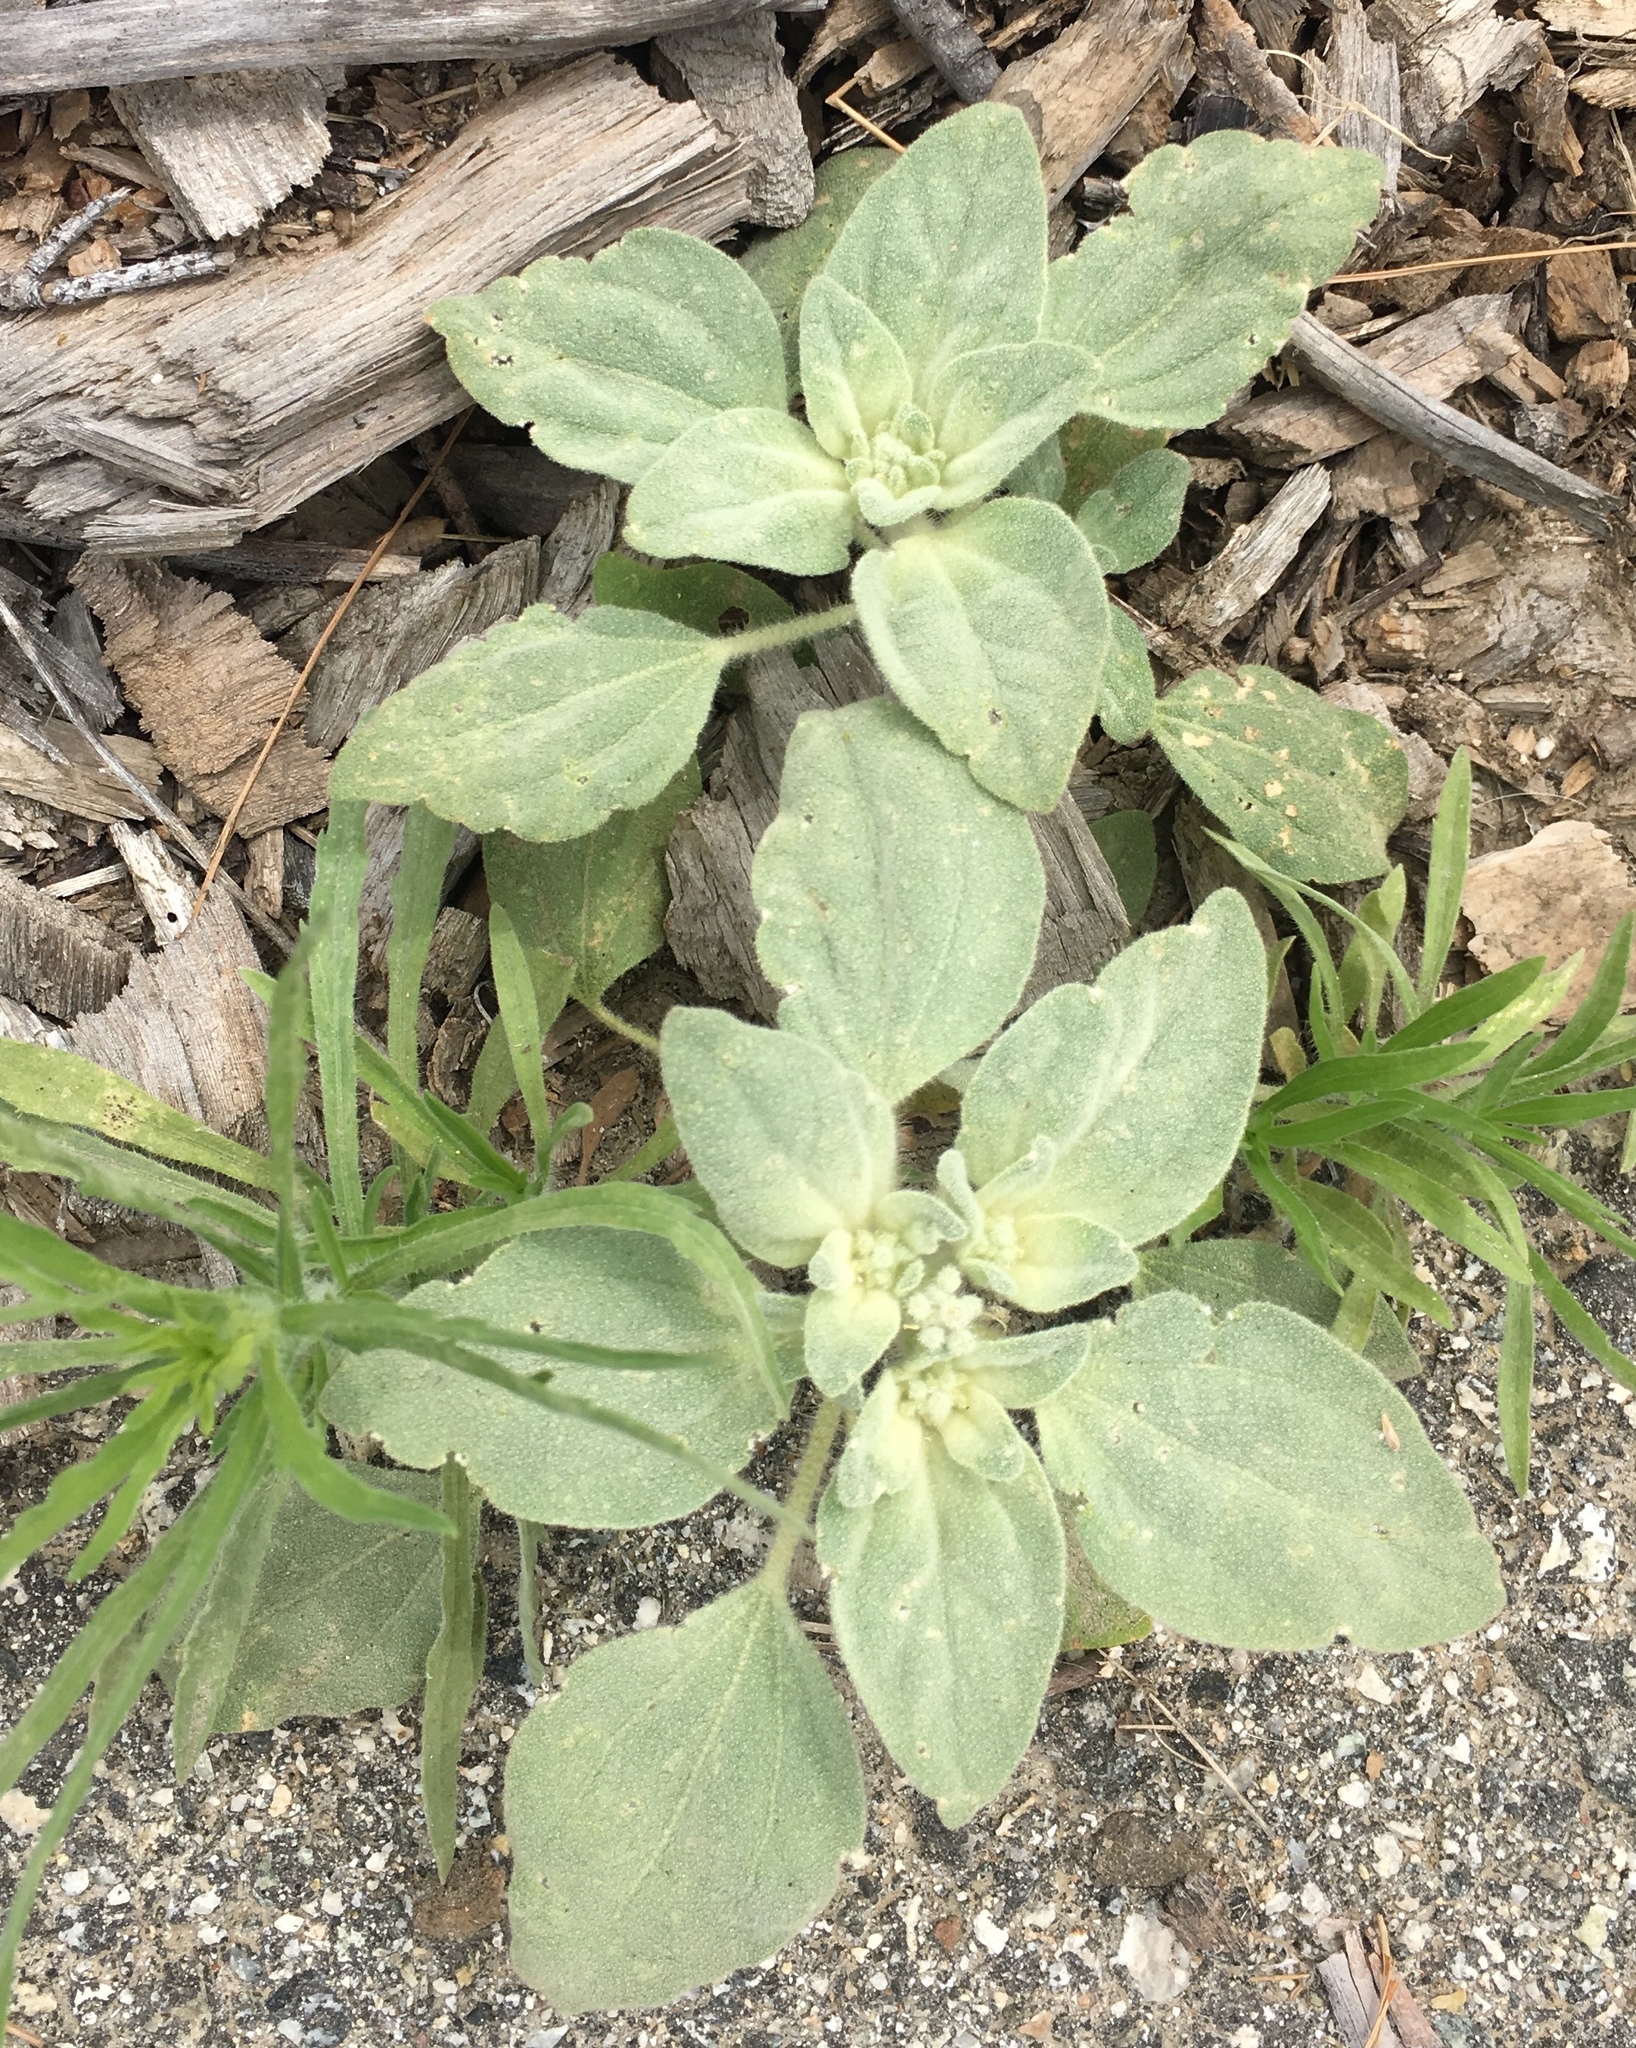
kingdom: Plantae
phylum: Tracheophyta
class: Magnoliopsida
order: Malpighiales
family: Euphorbiaceae
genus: Croton
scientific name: Croton setiger
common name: Dove weed
